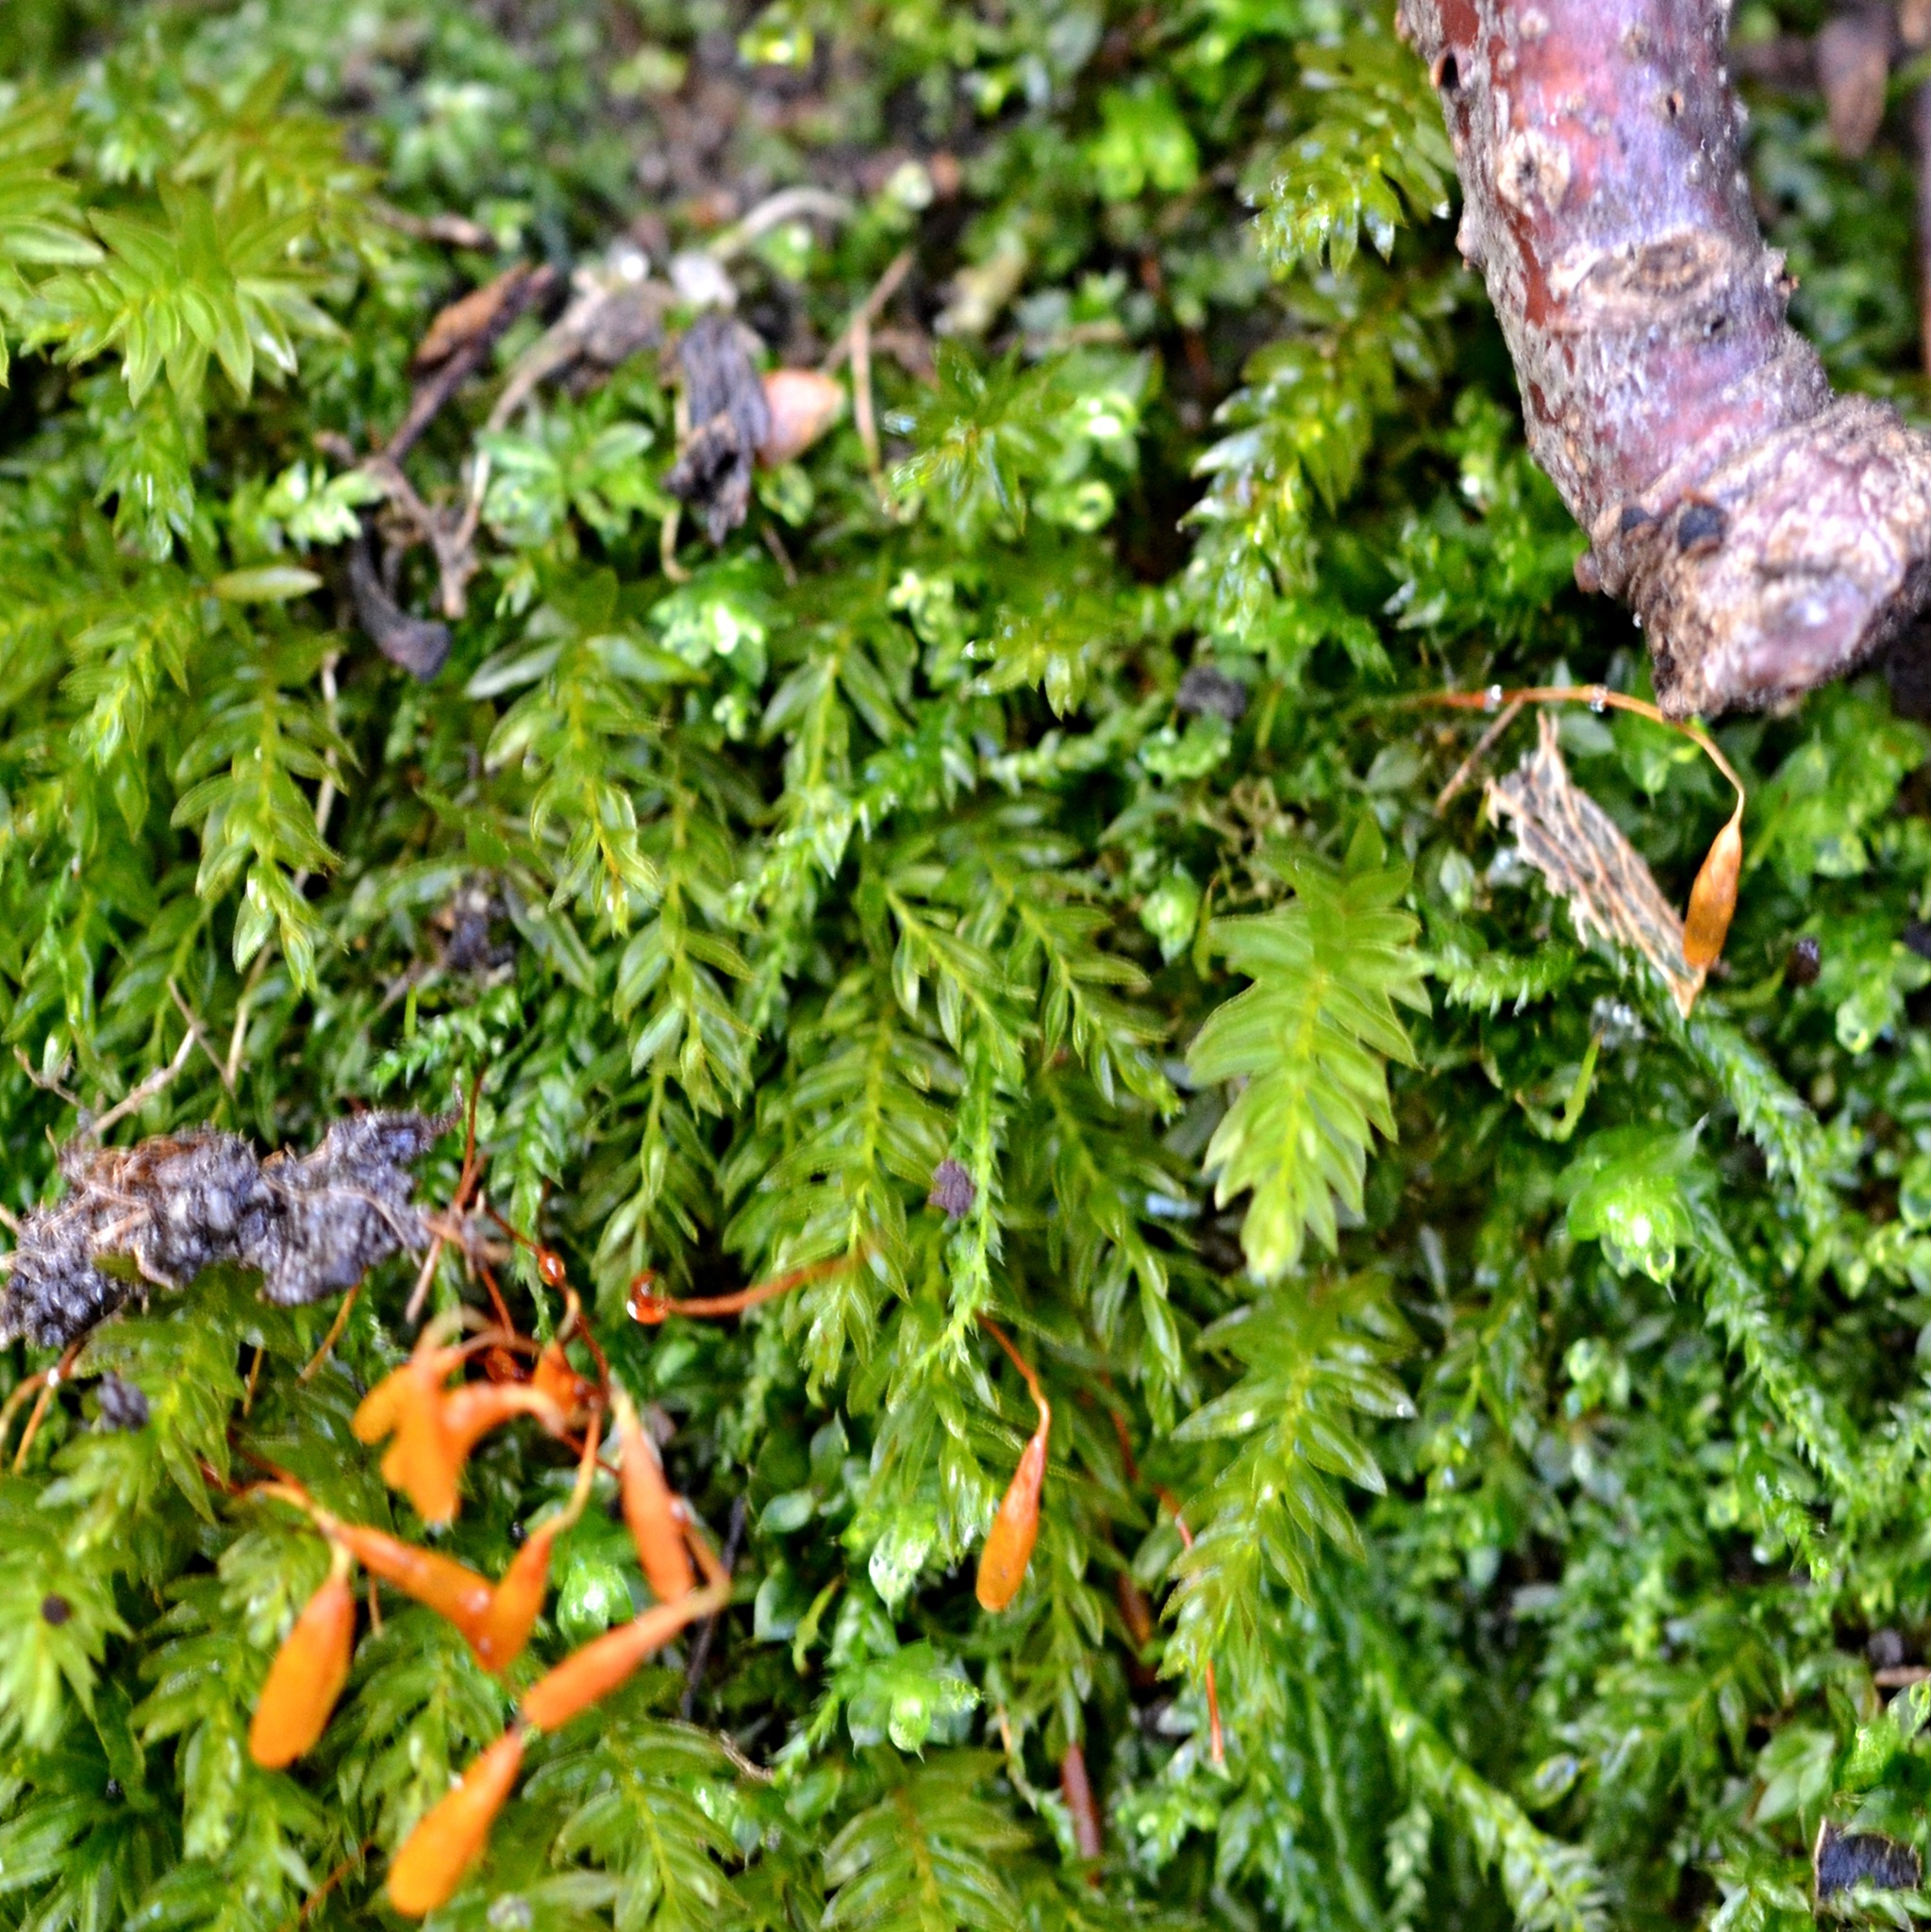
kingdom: Plantae
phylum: Bryophyta
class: Bryopsida
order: Bryales
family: Mniaceae
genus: Mnium
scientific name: Mnium hornum
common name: Swan's-neck leafy moss
